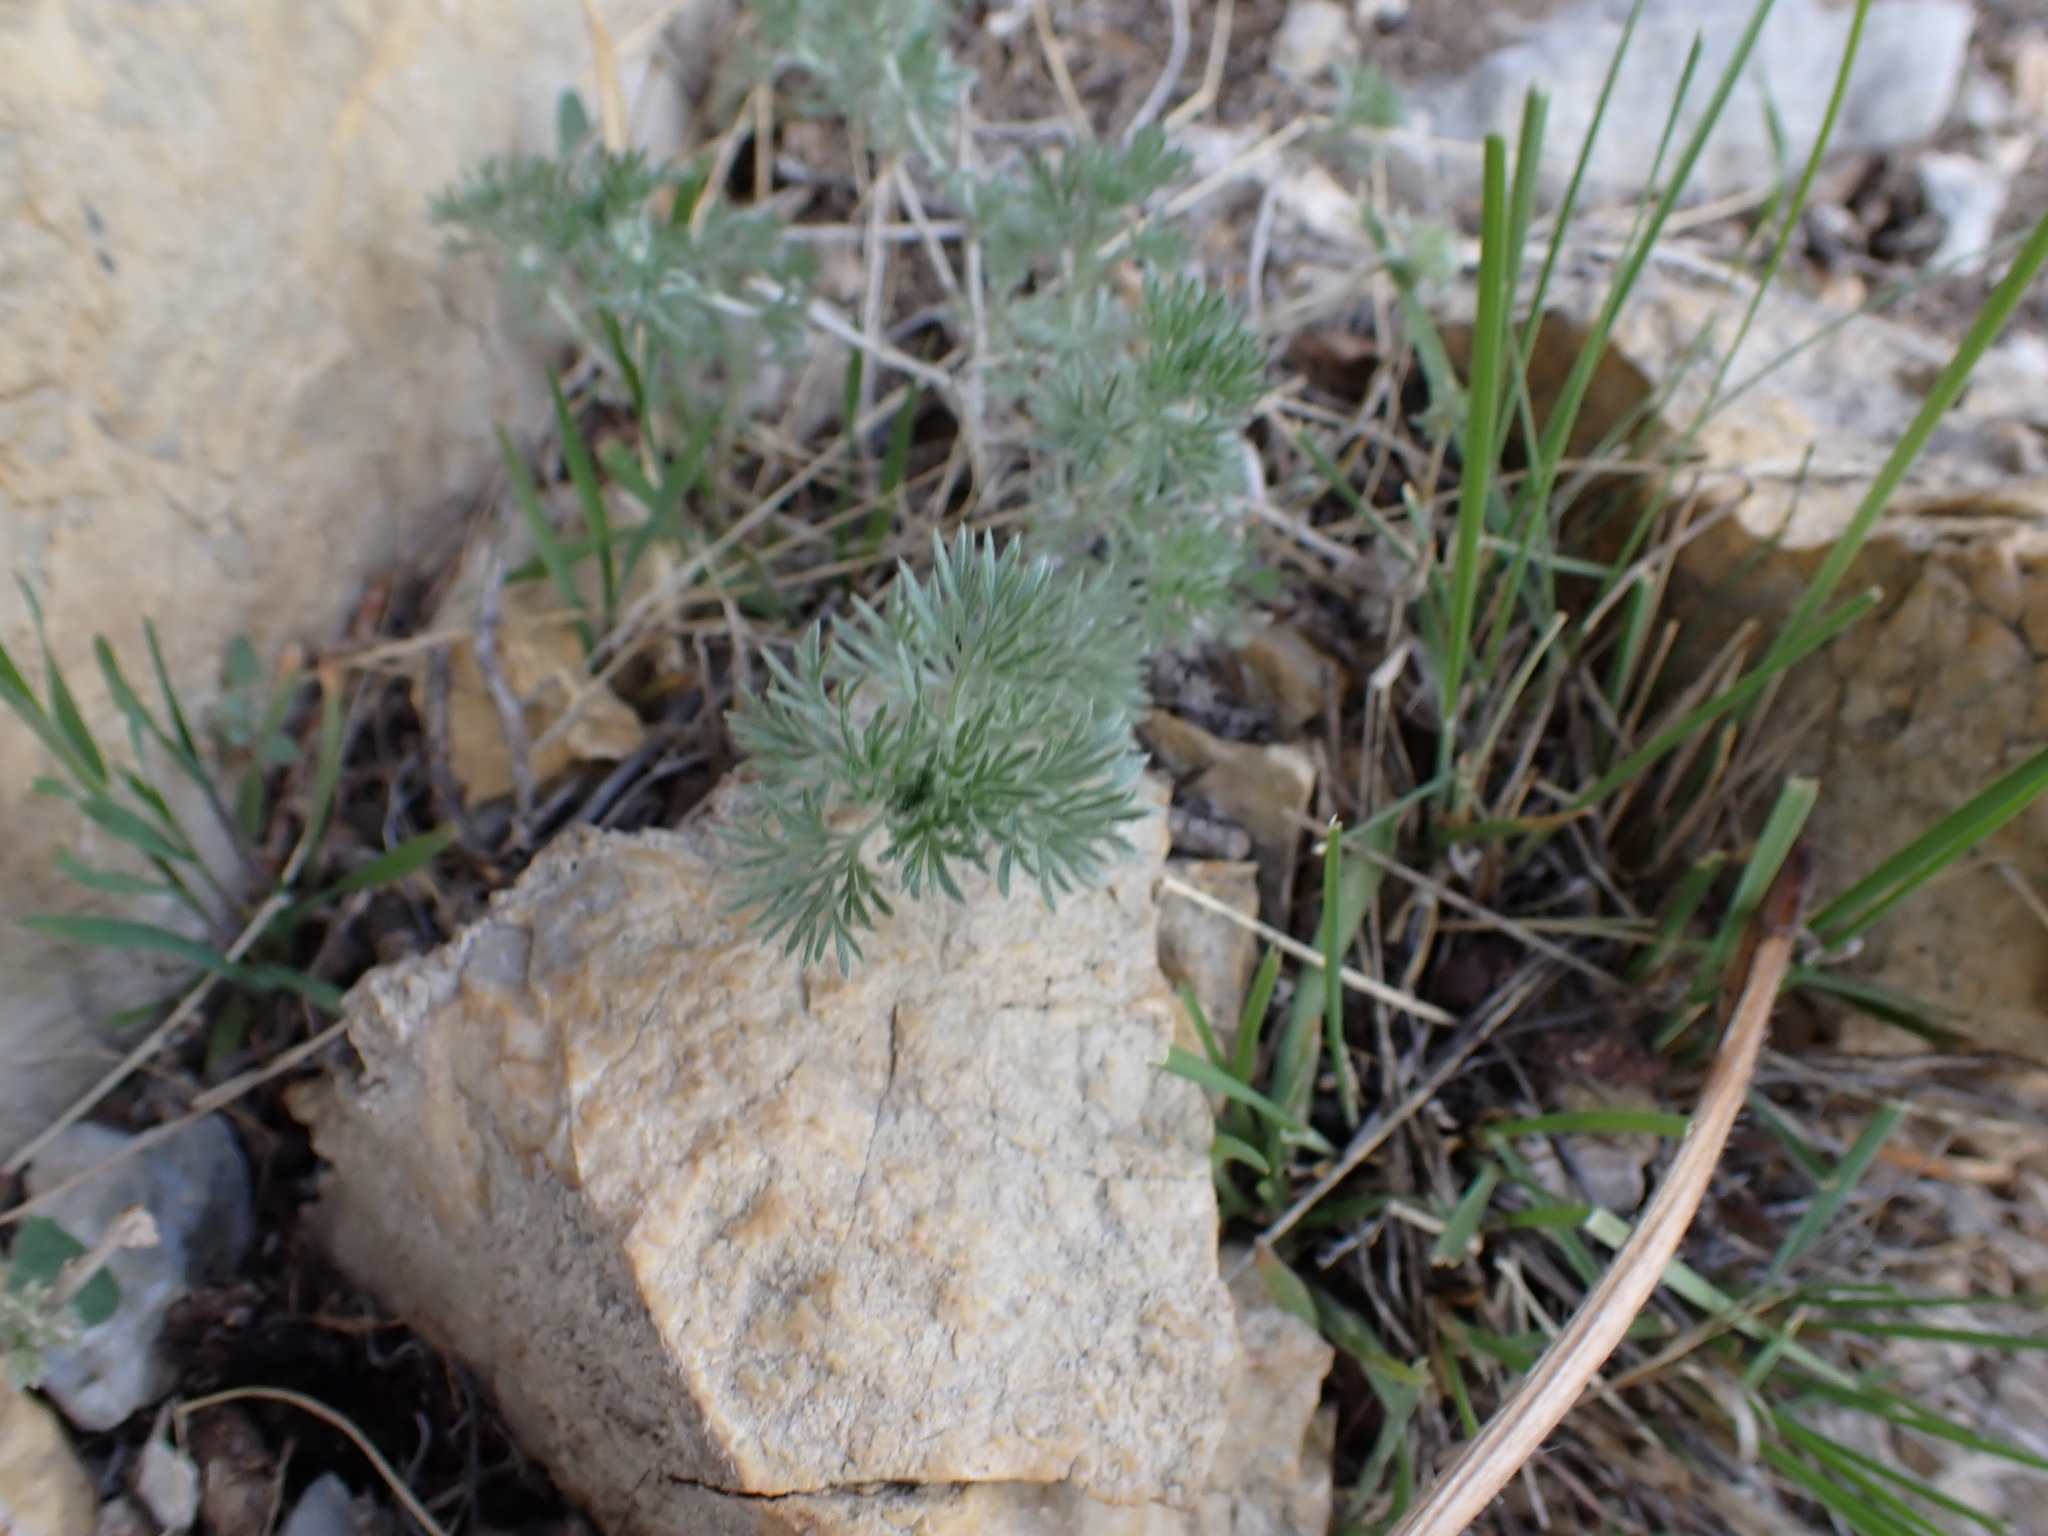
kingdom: Plantae
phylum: Tracheophyta
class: Magnoliopsida
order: Asterales
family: Asteraceae
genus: Artemisia
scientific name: Artemisia frigida
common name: Prairie sagewort
